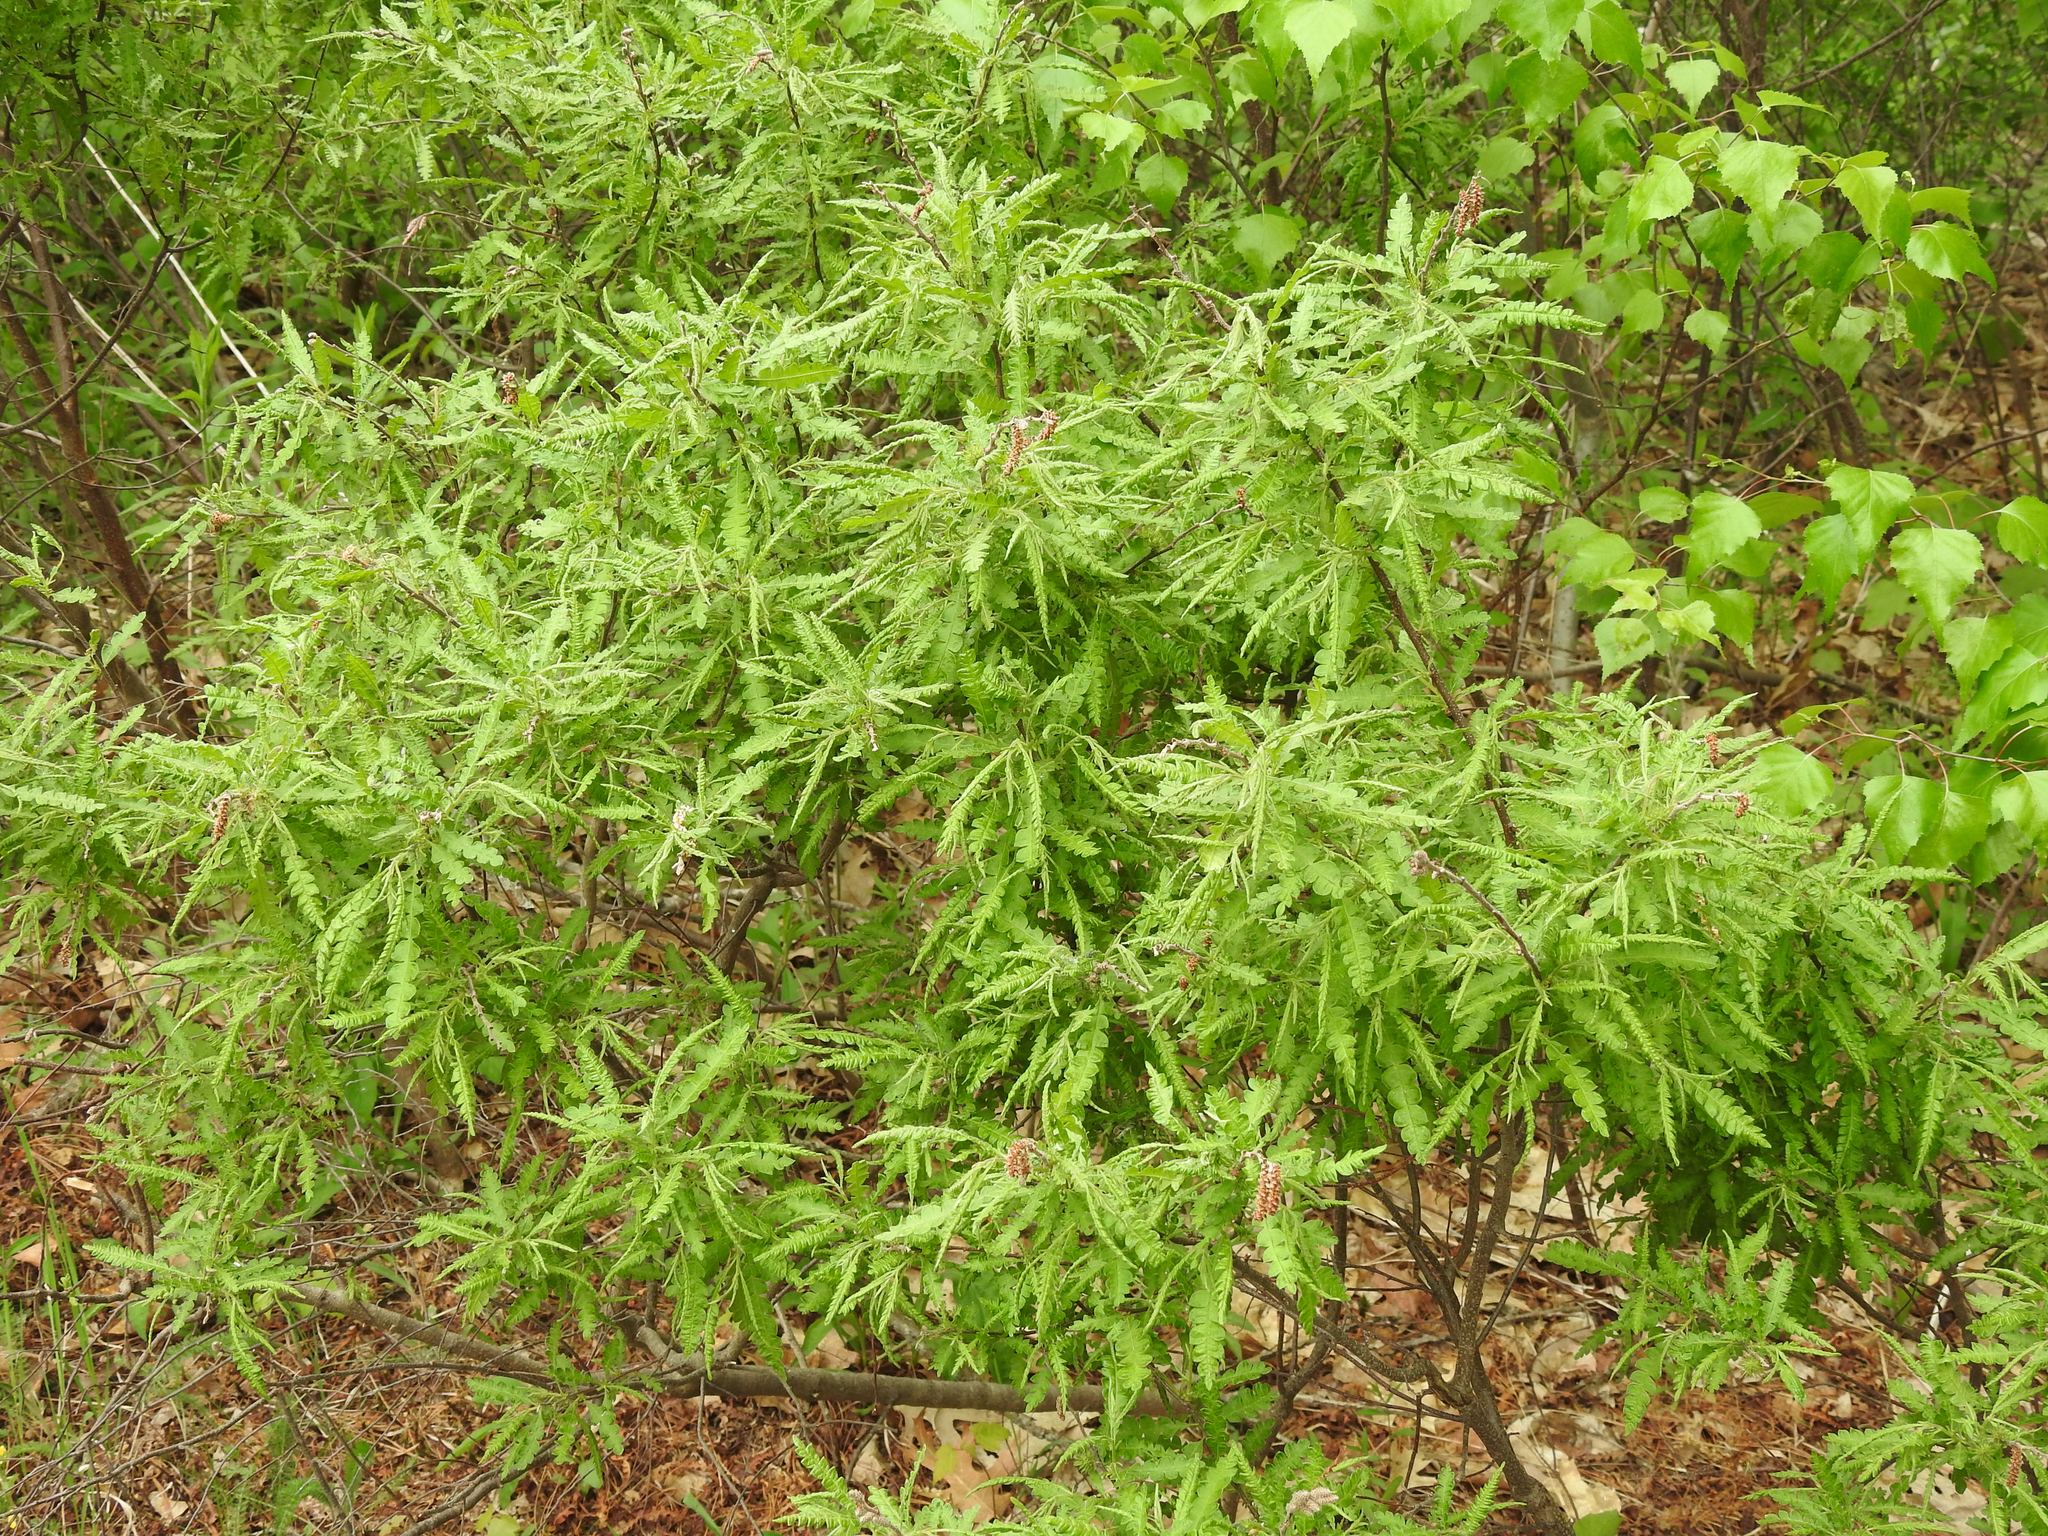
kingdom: Plantae
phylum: Tracheophyta
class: Magnoliopsida
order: Fagales
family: Myricaceae
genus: Comptonia
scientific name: Comptonia peregrina
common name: Sweet-fern
